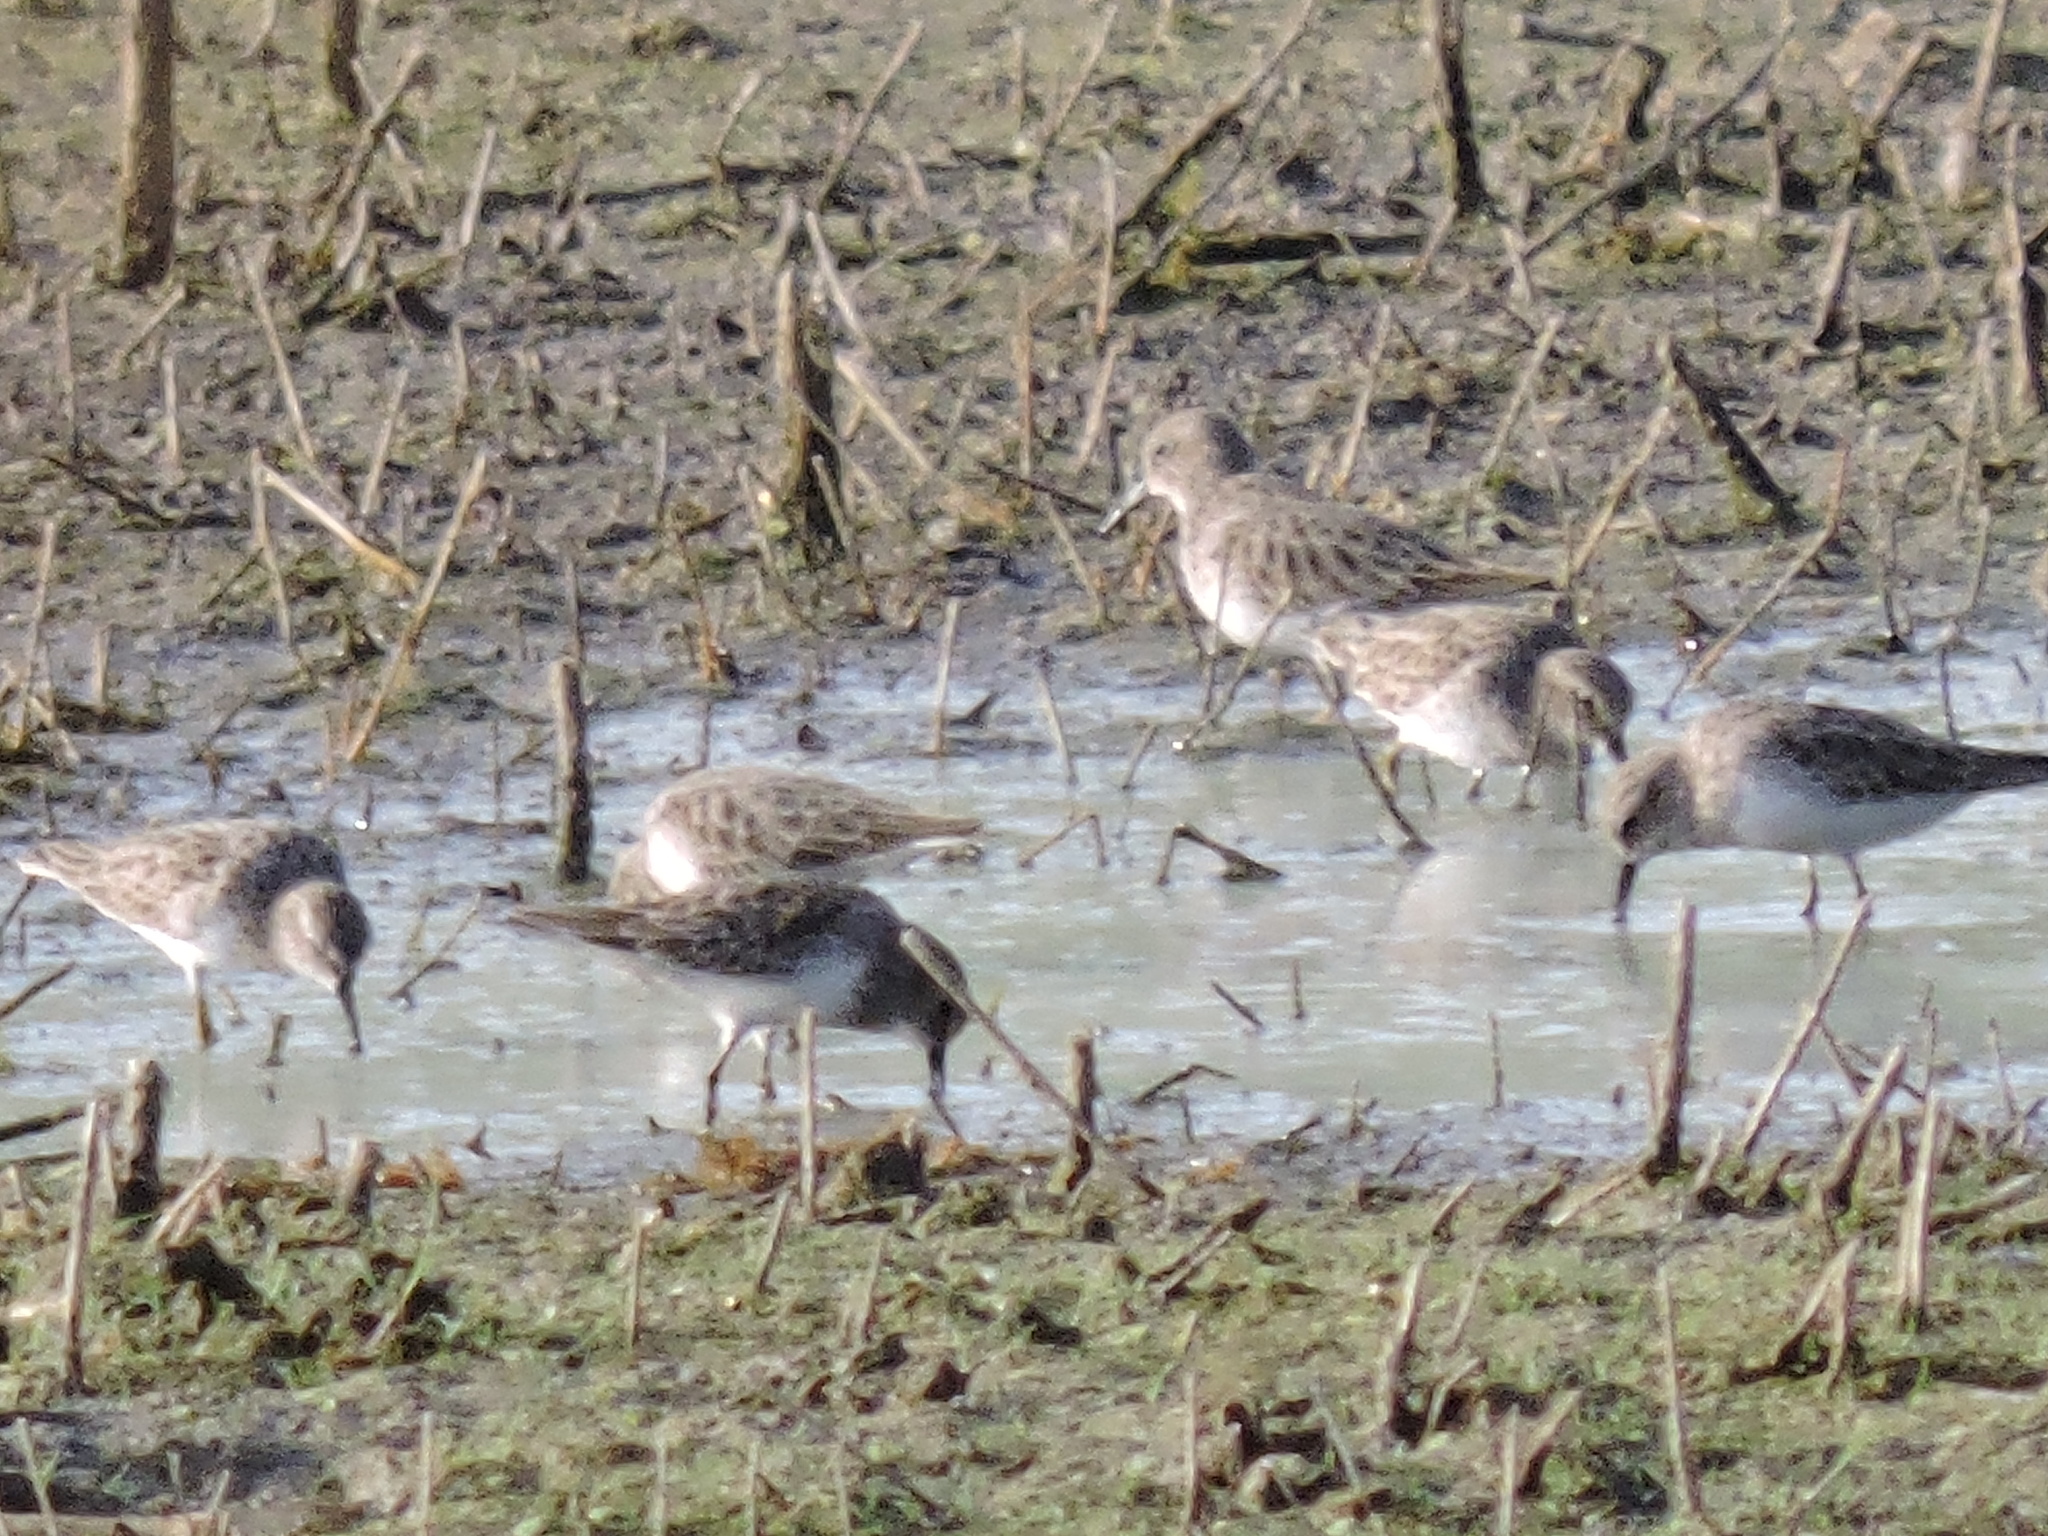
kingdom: Animalia
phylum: Chordata
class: Aves
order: Charadriiformes
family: Scolopacidae
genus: Calidris
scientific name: Calidris minutilla
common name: Least sandpiper
